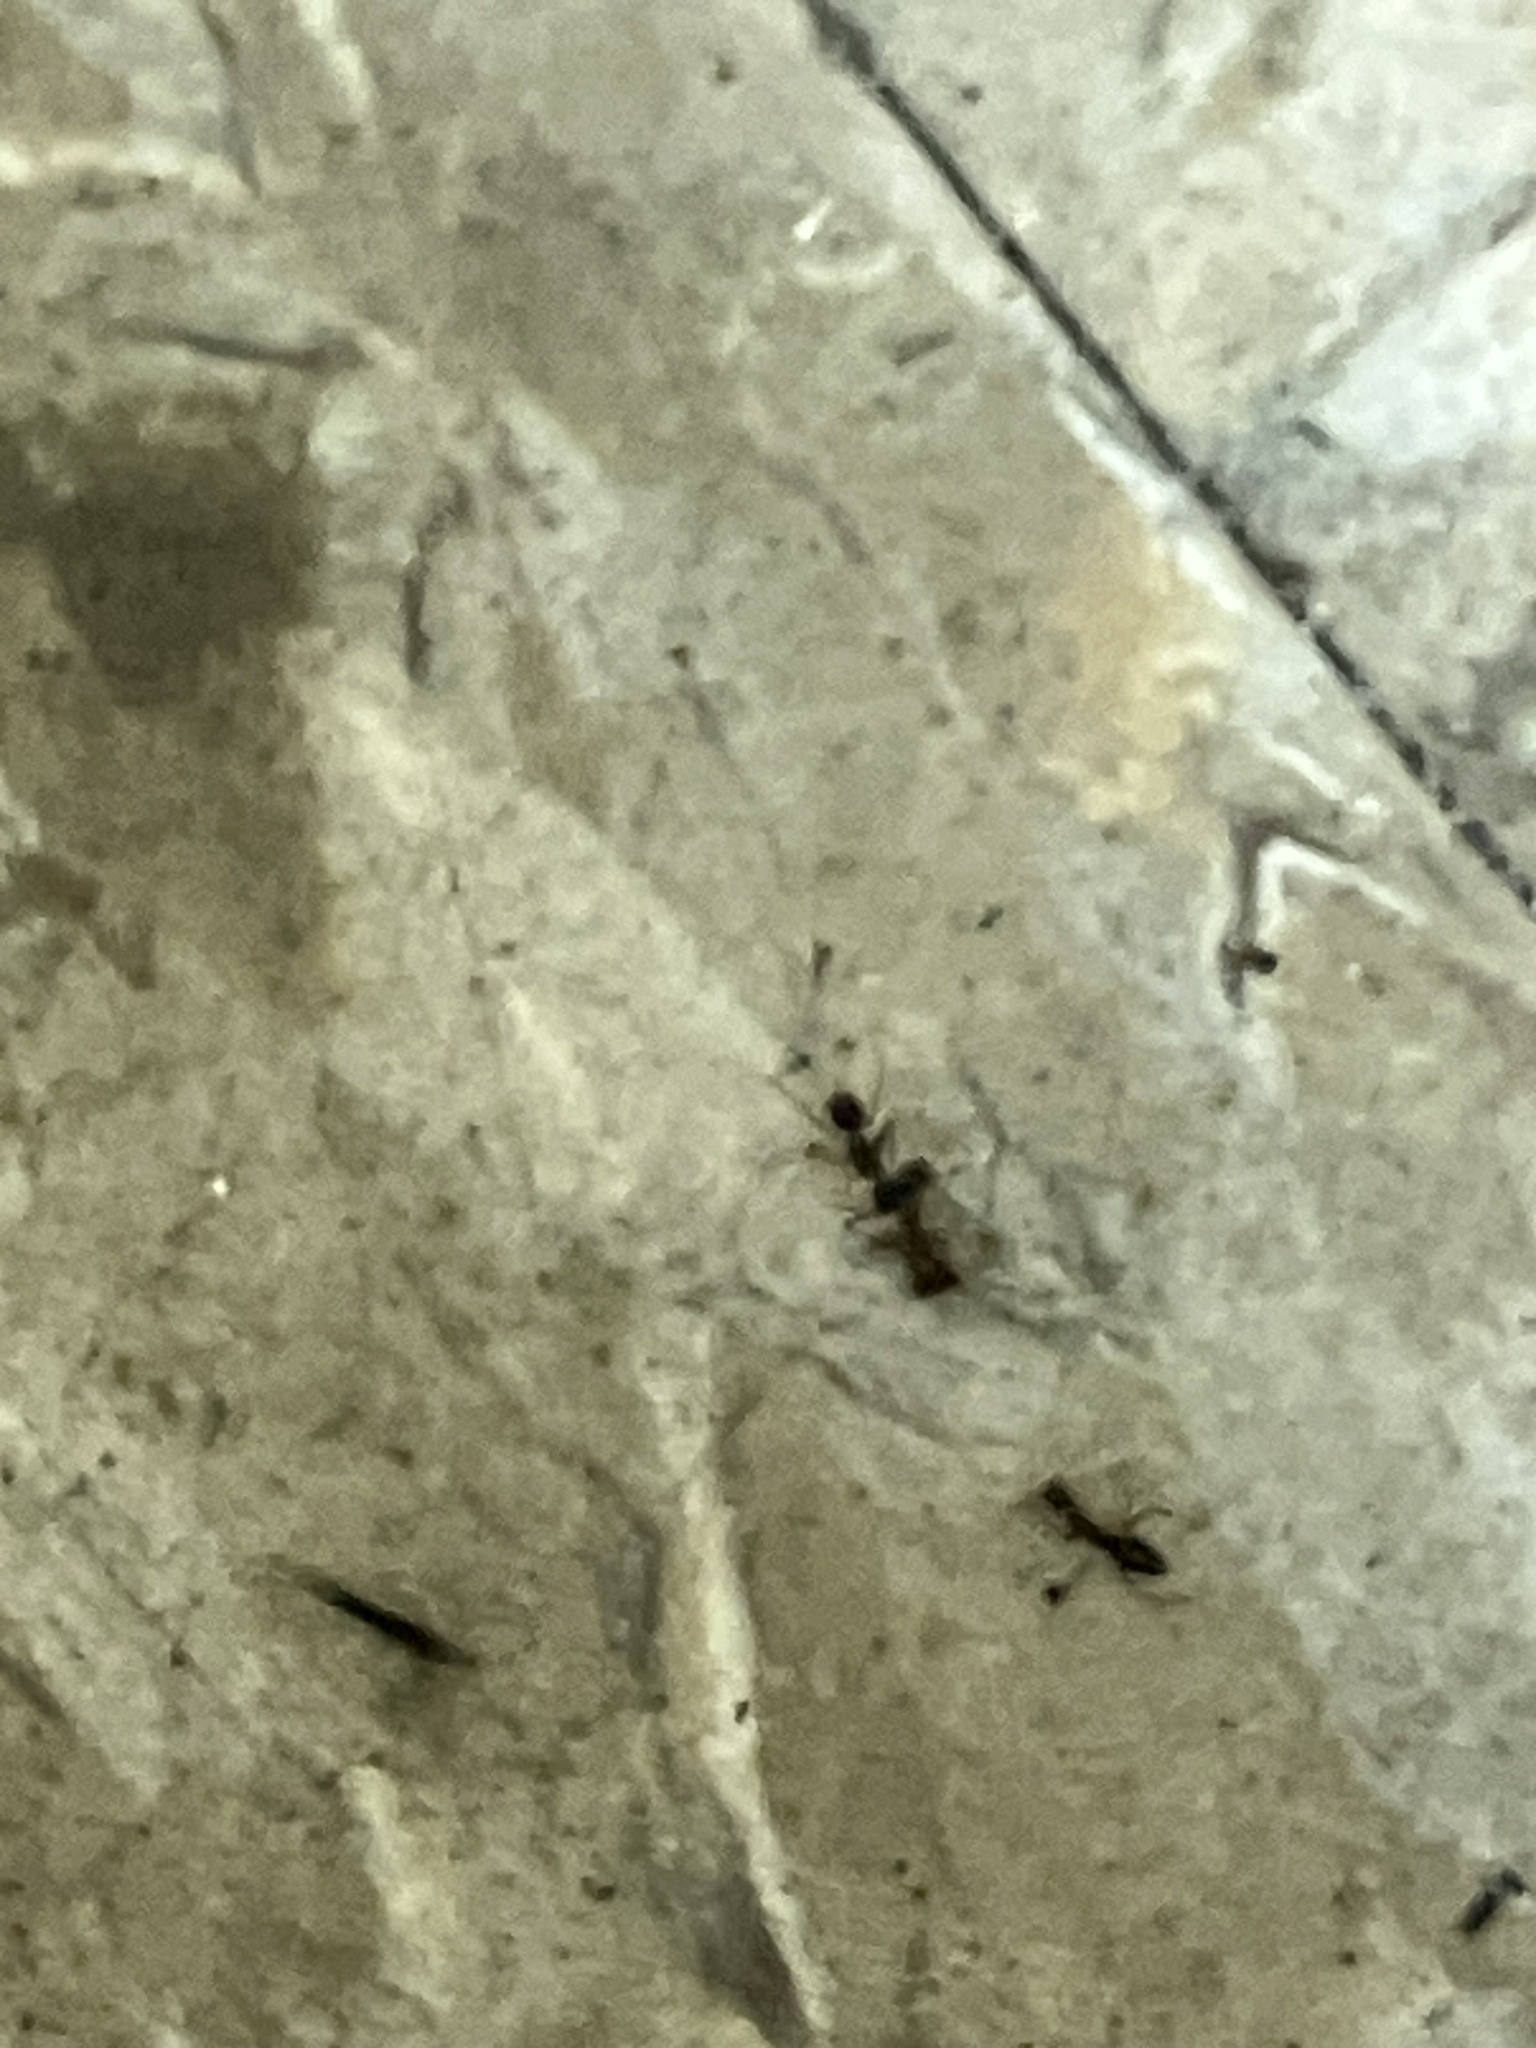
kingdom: Animalia
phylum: Arthropoda
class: Insecta
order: Hymenoptera
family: Formicidae
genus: Paratrechina
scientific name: Paratrechina longicornis
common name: Longhorned crazy ant
